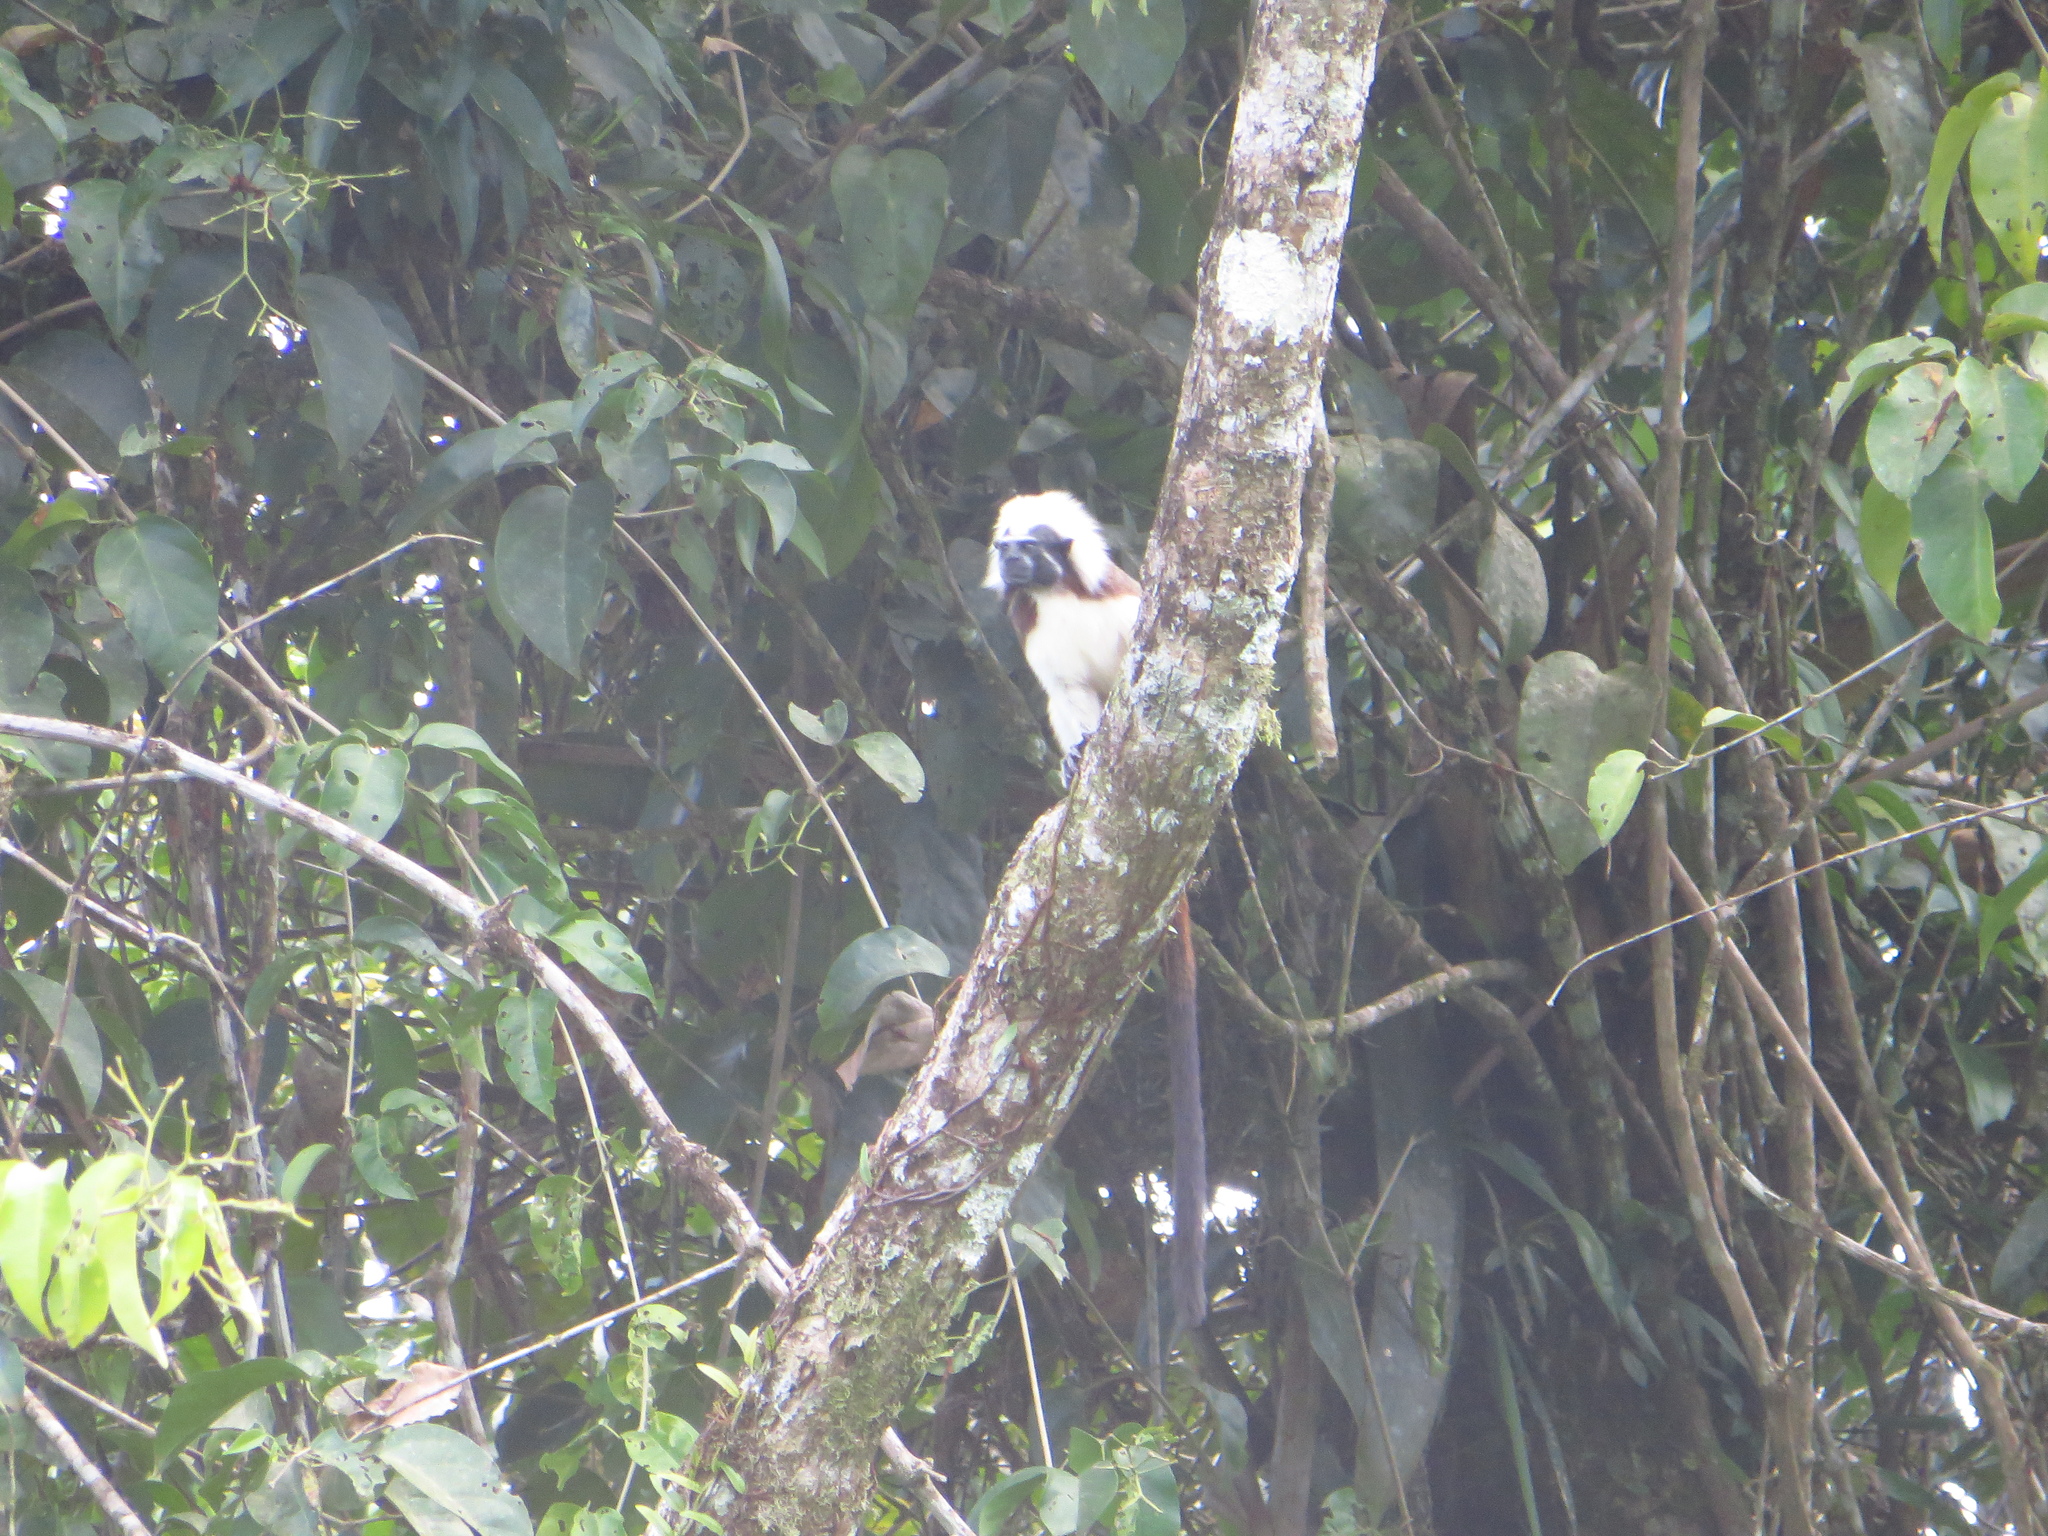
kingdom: Animalia
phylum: Chordata
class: Mammalia
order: Primates
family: Callitrichidae
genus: Saguinus
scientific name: Saguinus oedipus
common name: Cottontop tamarin
